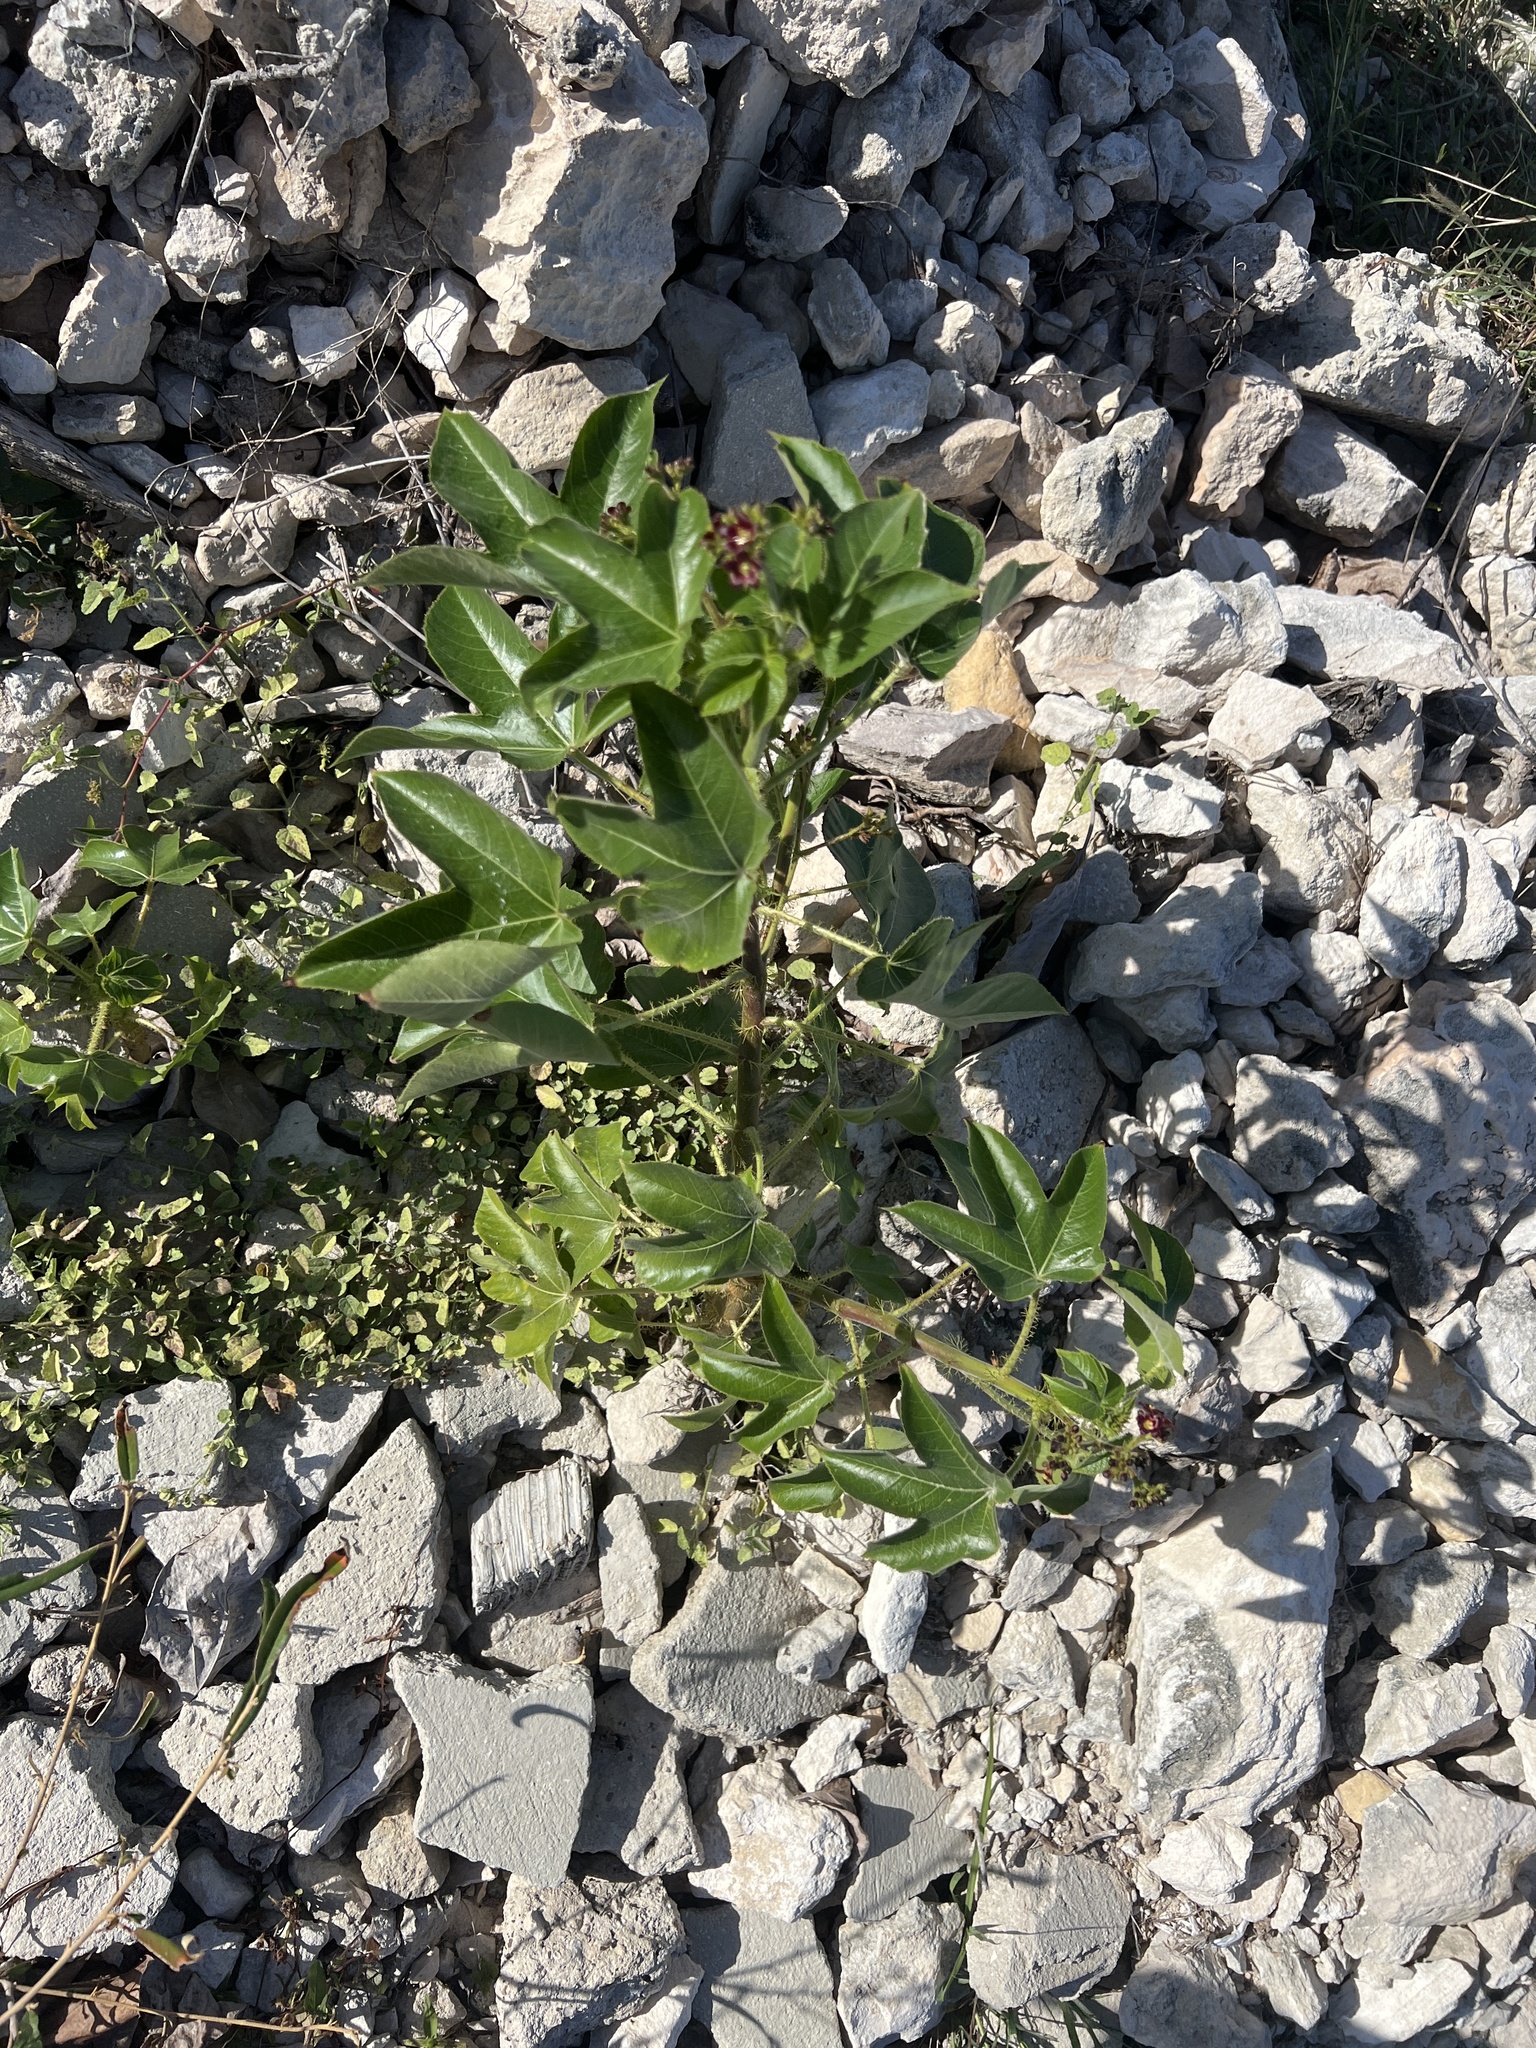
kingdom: Plantae
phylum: Tracheophyta
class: Magnoliopsida
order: Malpighiales
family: Euphorbiaceae
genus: Jatropha
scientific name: Jatropha gossypiifolia
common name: Bellyache bush
